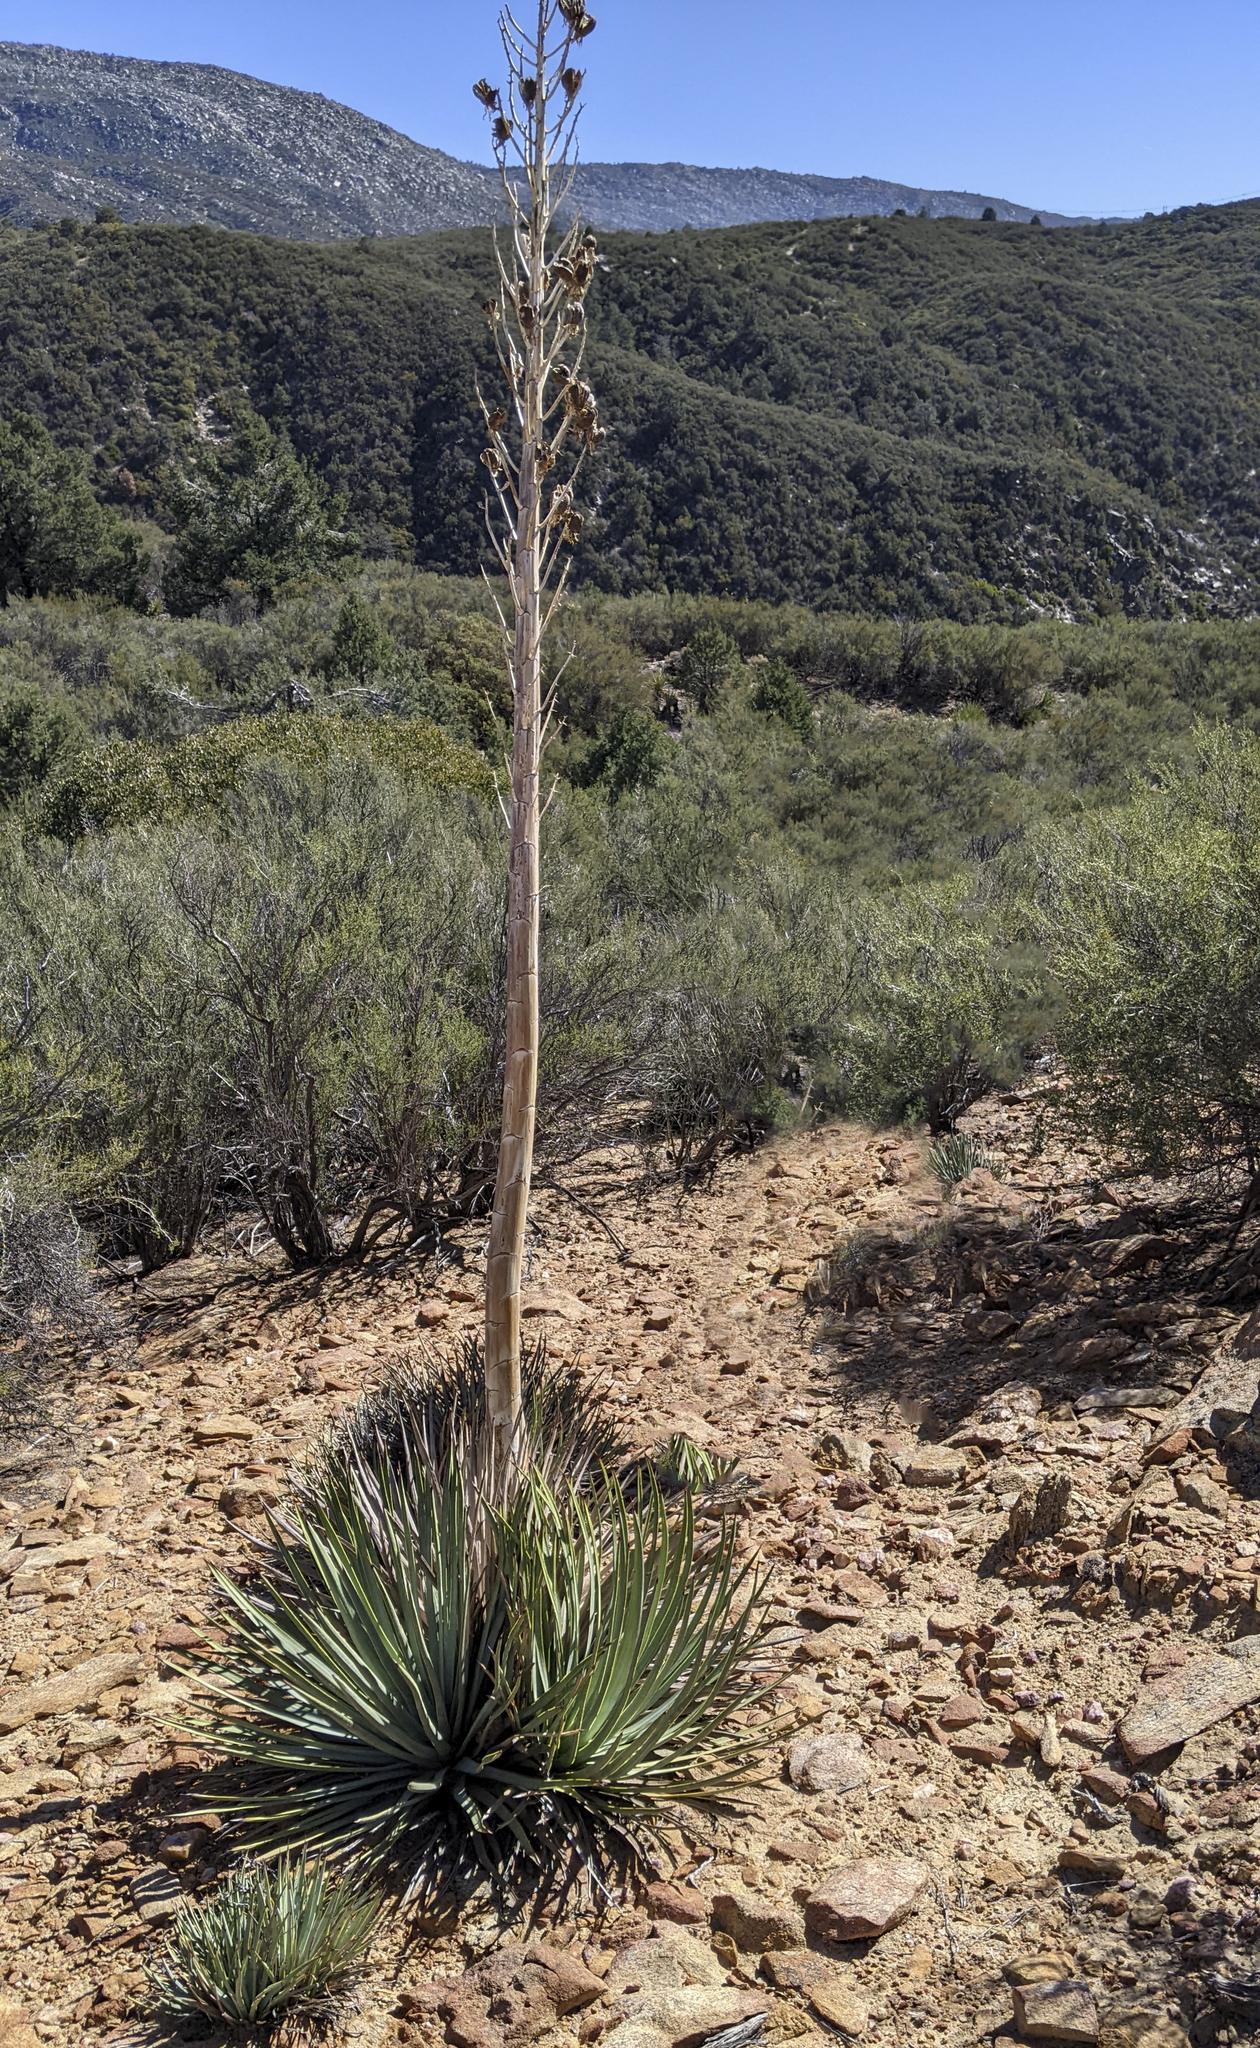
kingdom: Plantae
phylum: Tracheophyta
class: Liliopsida
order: Asparagales
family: Asparagaceae
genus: Hesperoyucca
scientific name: Hesperoyucca whipplei
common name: Our lord's-candle
